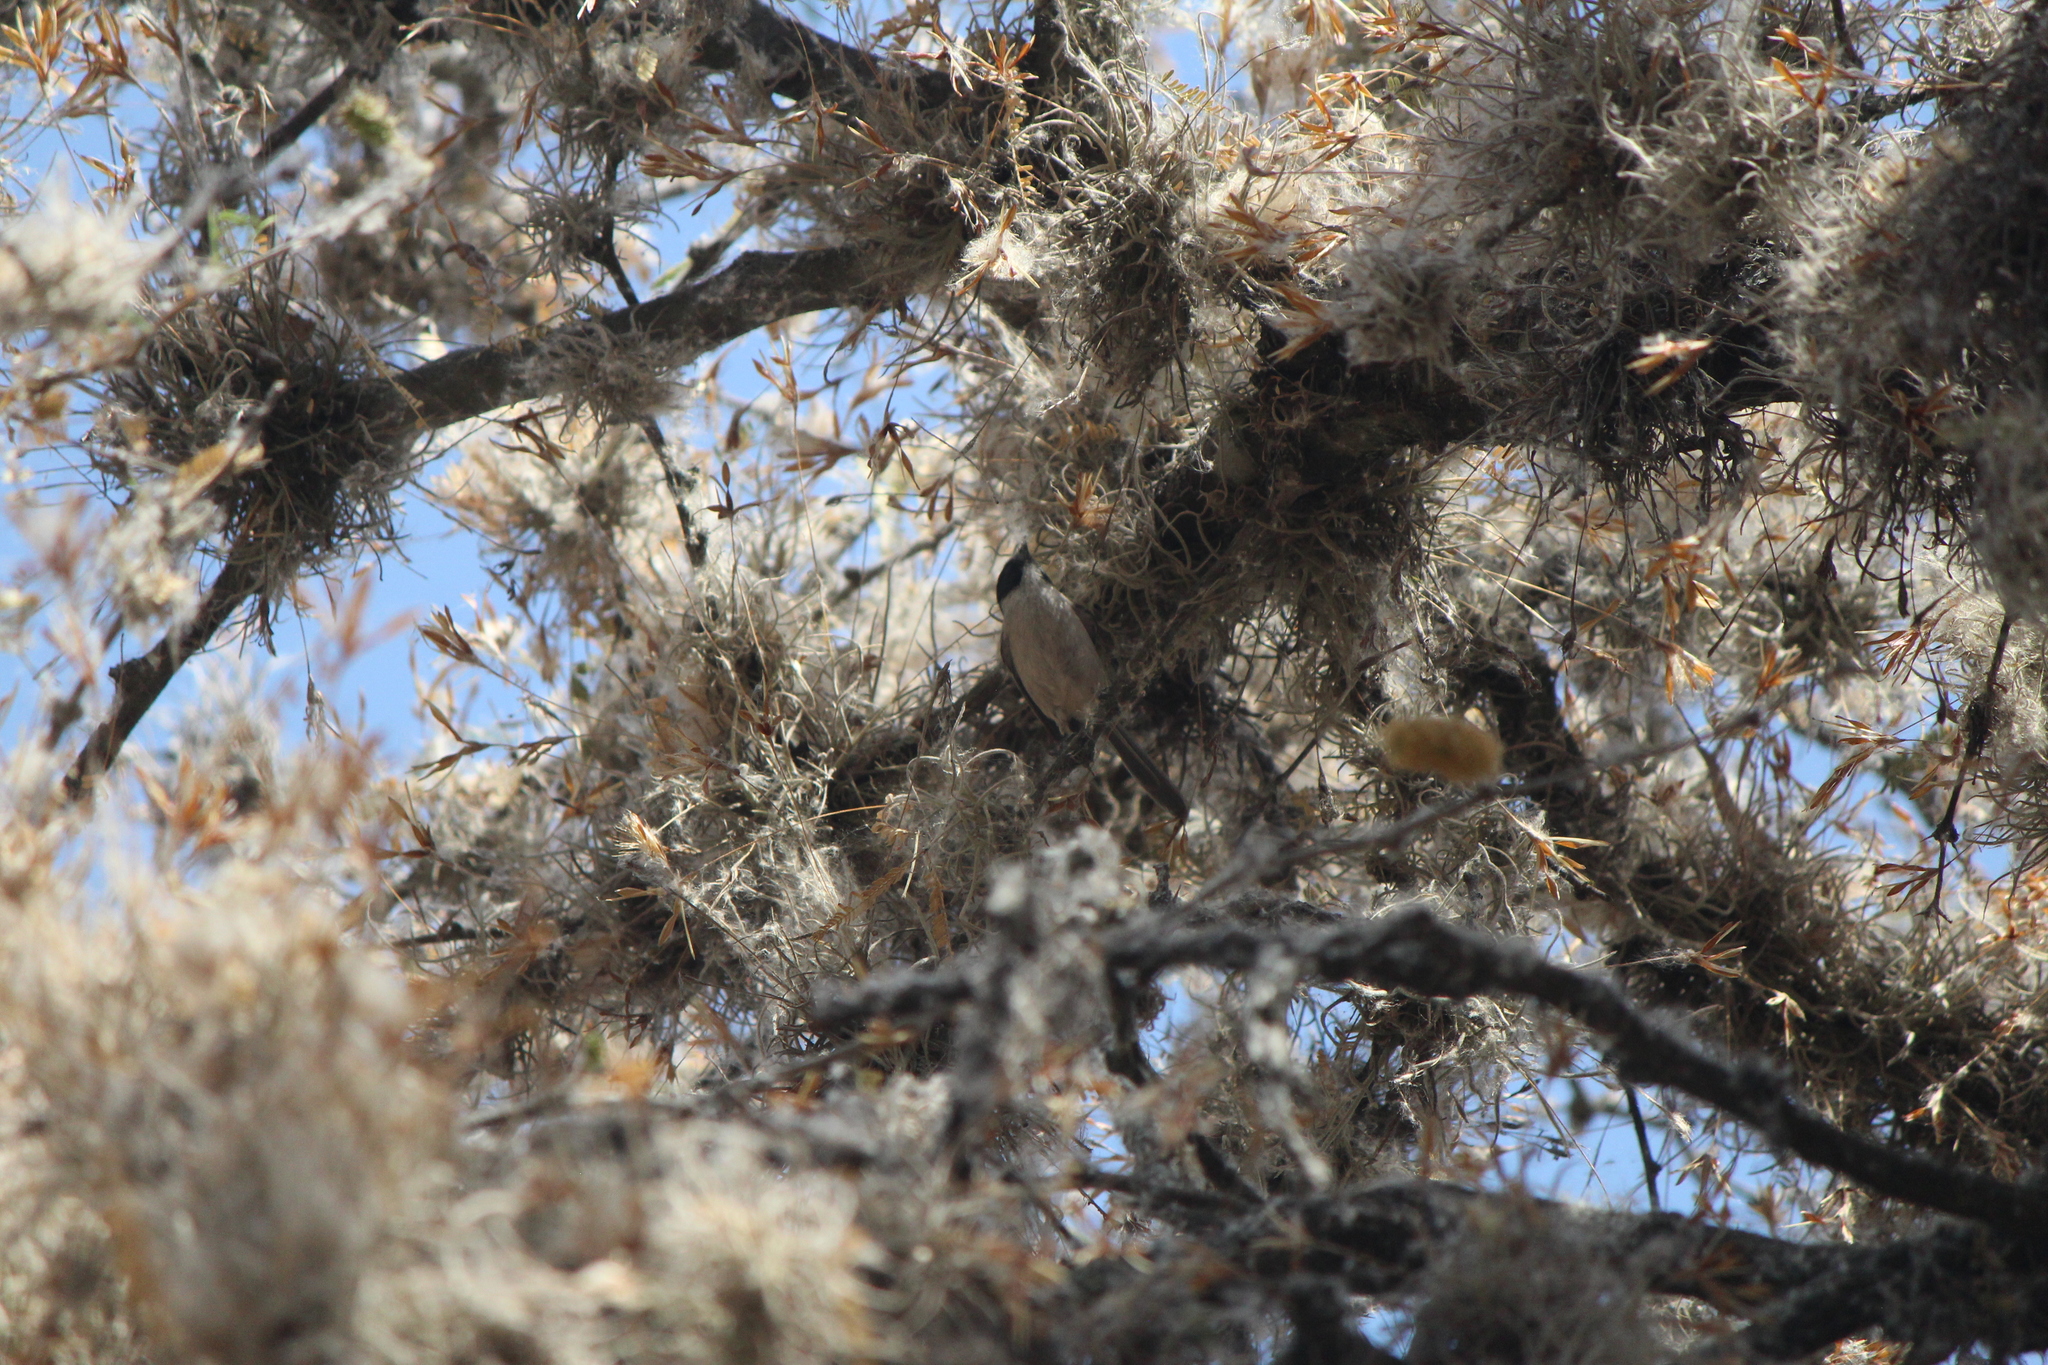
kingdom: Animalia
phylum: Chordata
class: Aves
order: Passeriformes
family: Aegithalidae
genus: Psaltriparus
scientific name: Psaltriparus minimus
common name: American bushtit
